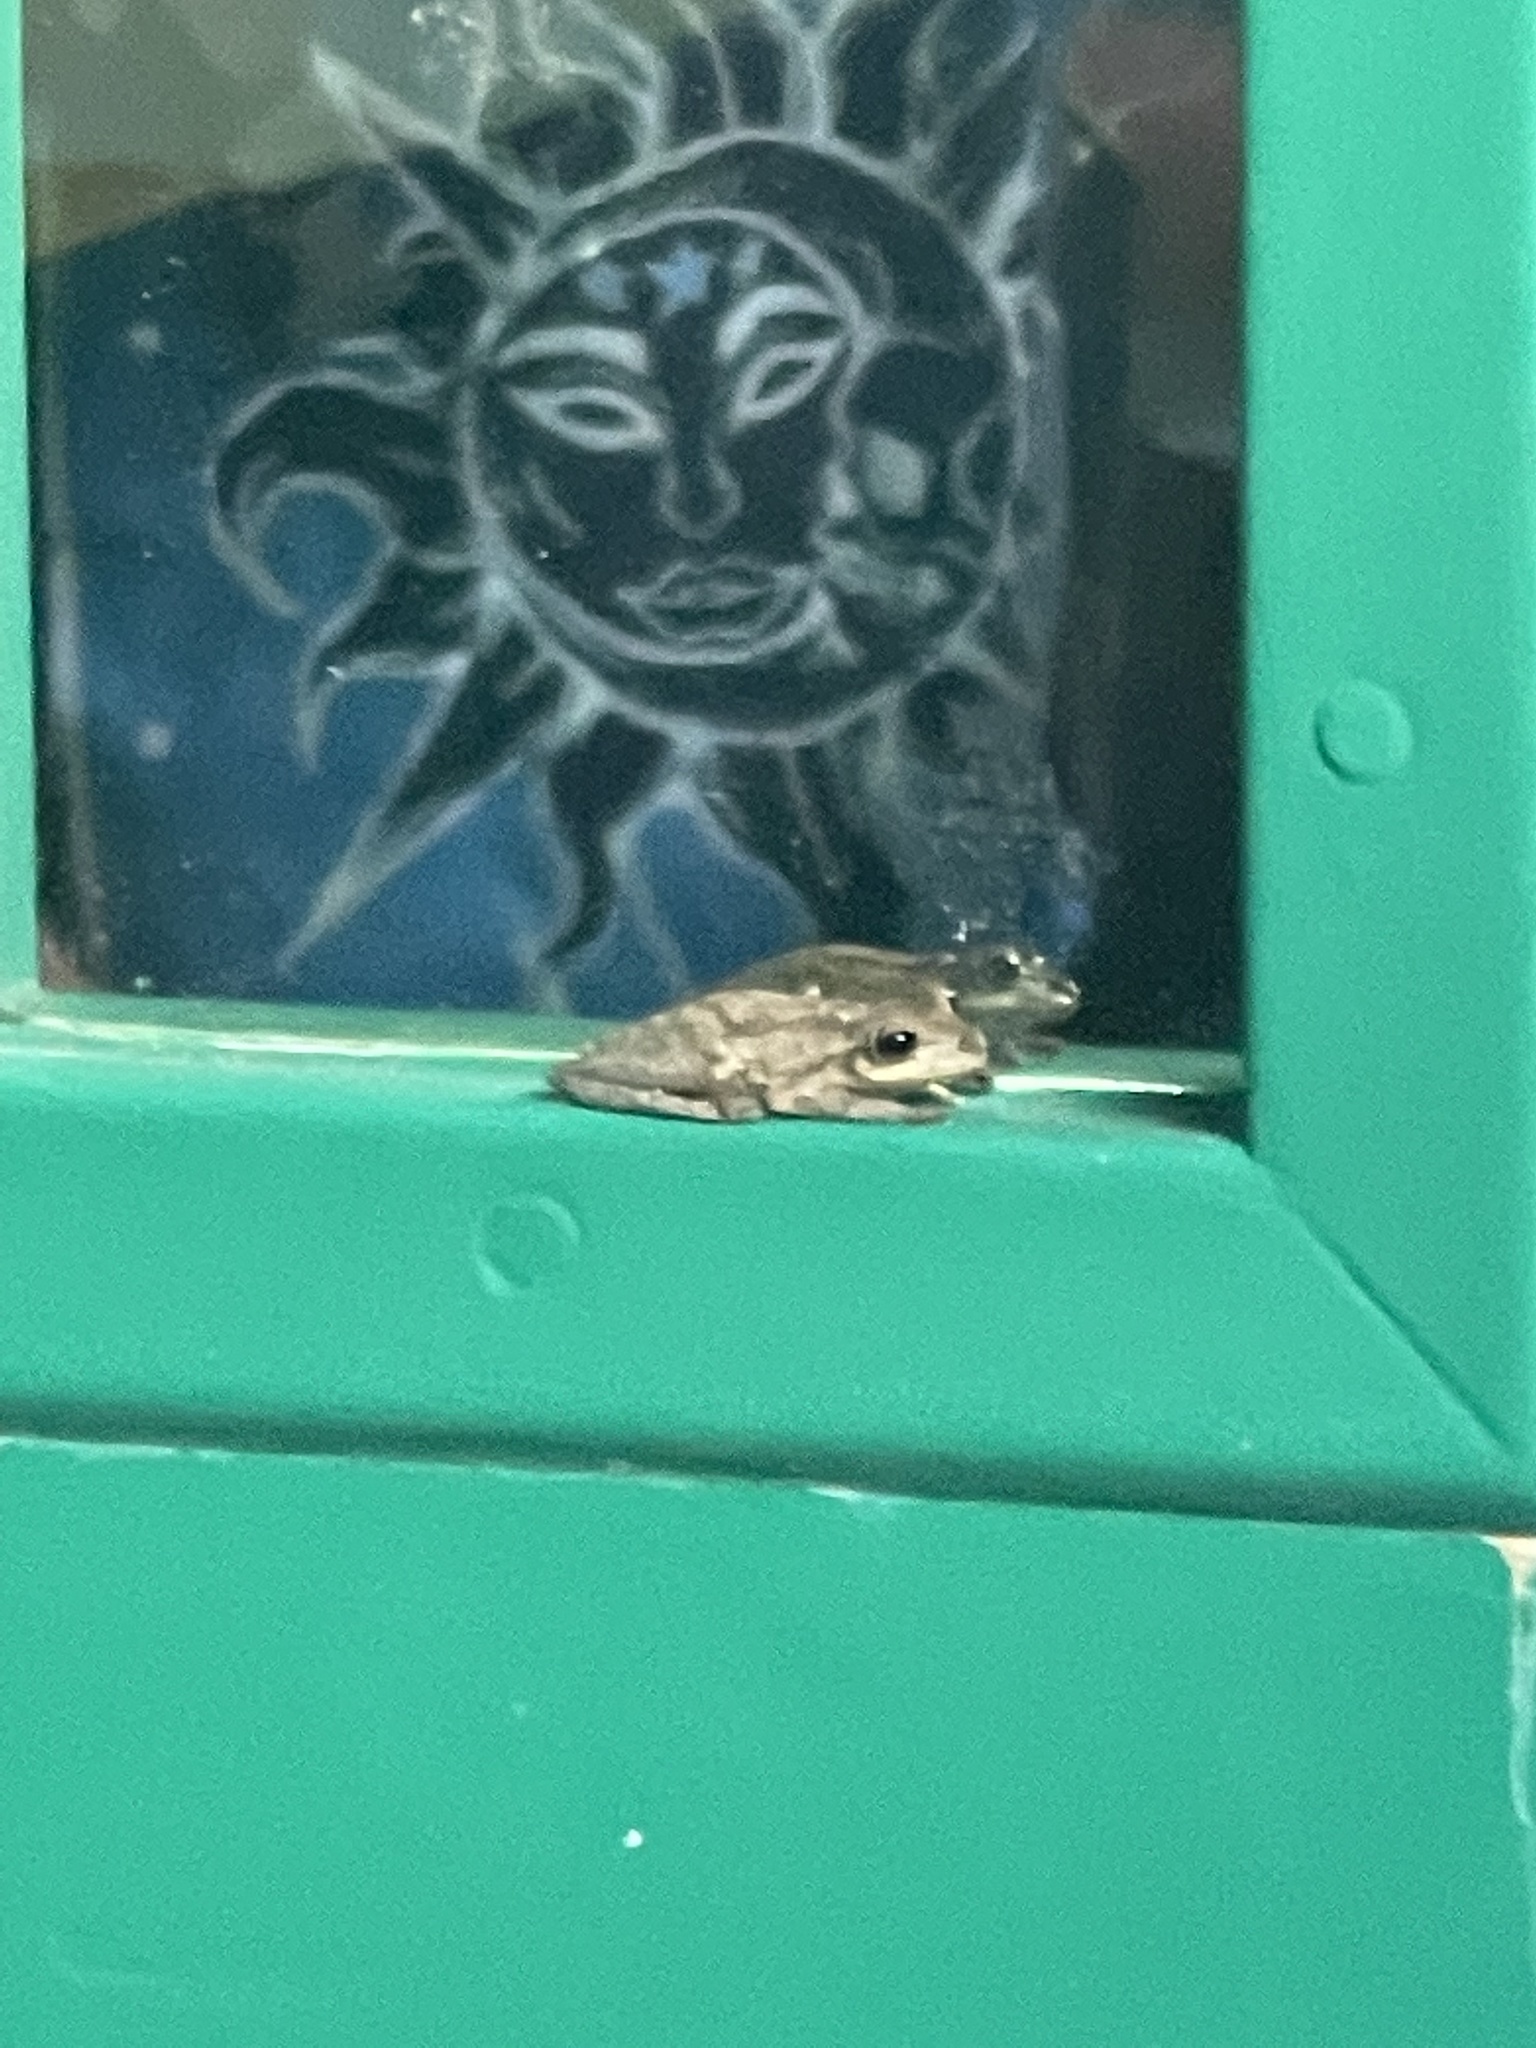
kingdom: Animalia
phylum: Chordata
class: Amphibia
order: Anura
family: Hylidae
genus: Osteopilus
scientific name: Osteopilus septentrionalis
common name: Cuban treefrog
